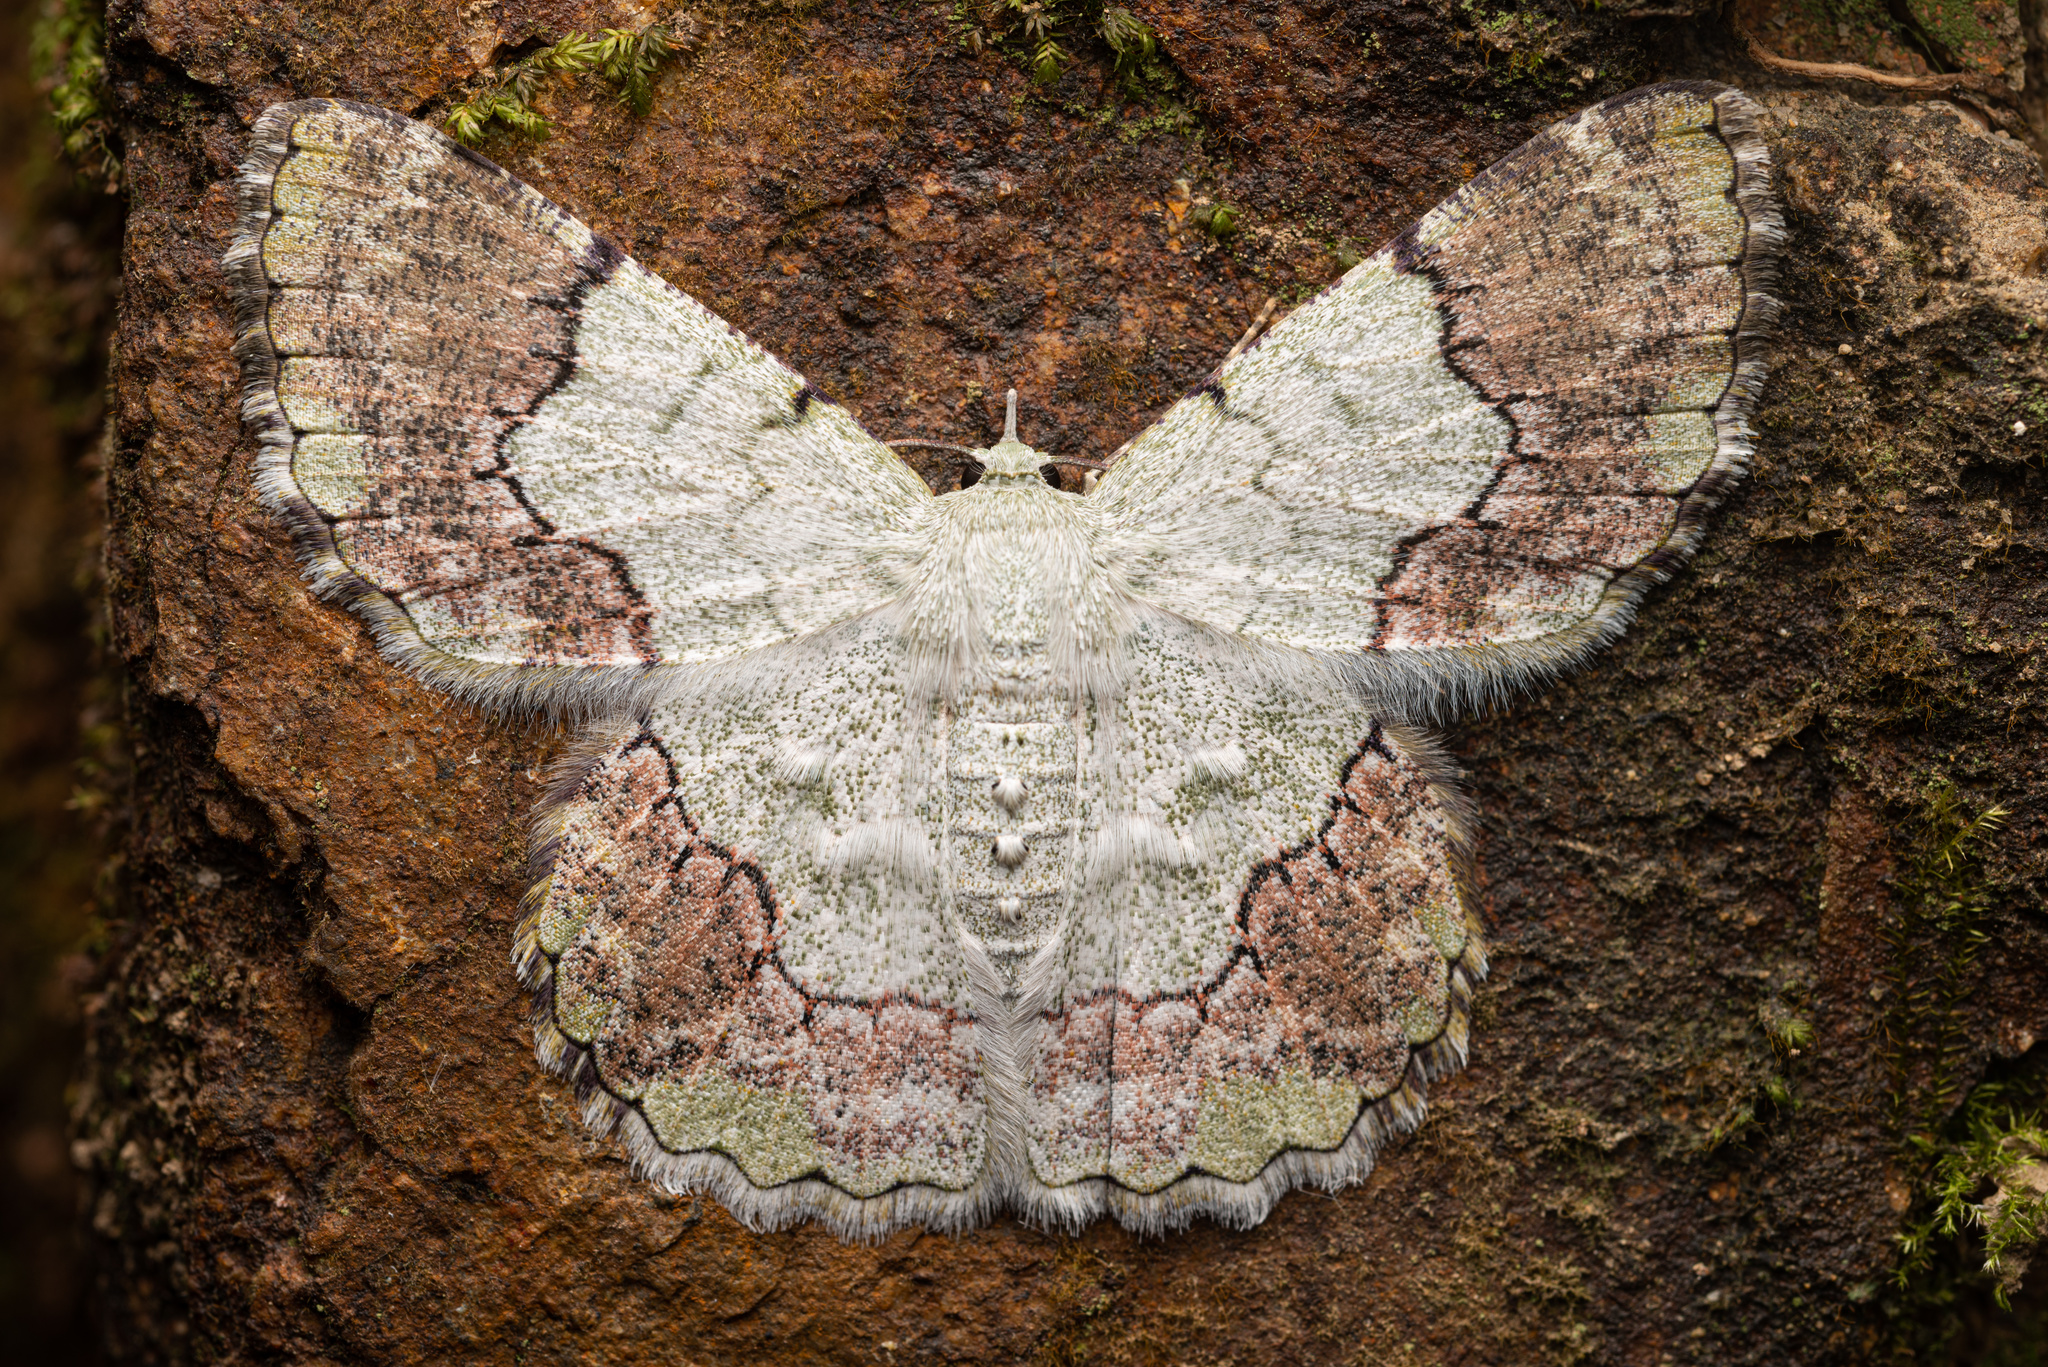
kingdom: Animalia
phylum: Arthropoda
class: Insecta
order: Lepidoptera
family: Geometridae
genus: Pingasa
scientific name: Pingasa ruginaria
